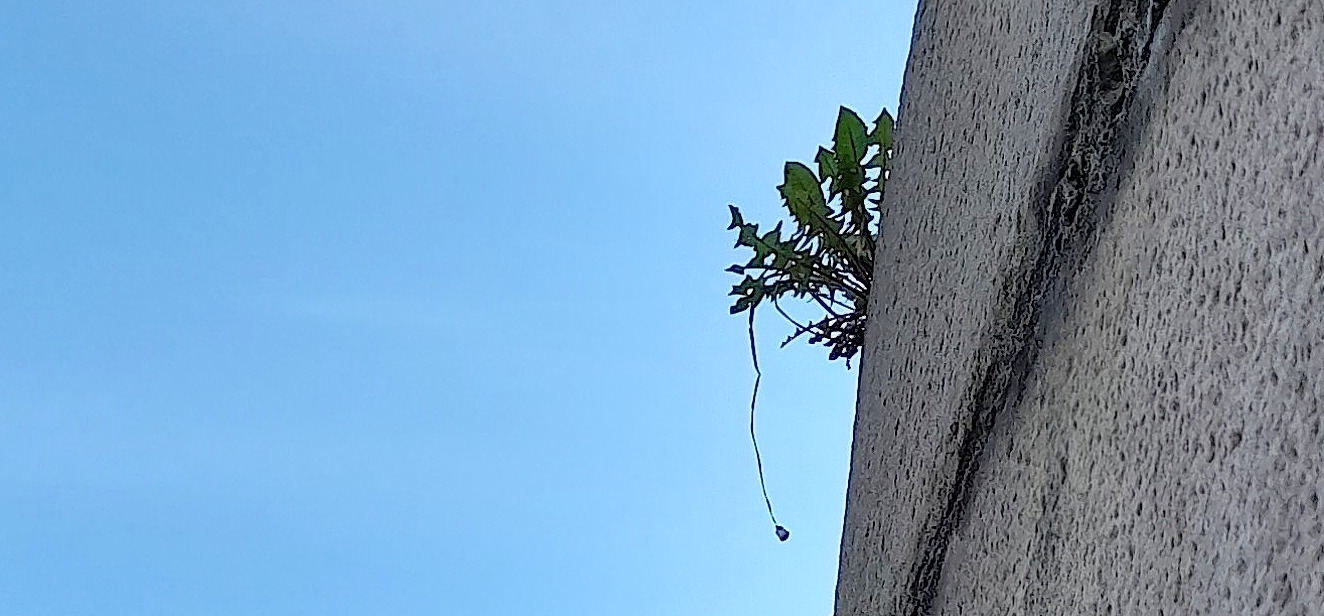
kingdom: Plantae
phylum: Tracheophyta
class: Magnoliopsida
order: Asterales
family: Asteraceae
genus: Taraxacum
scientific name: Taraxacum officinale
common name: Common dandelion
